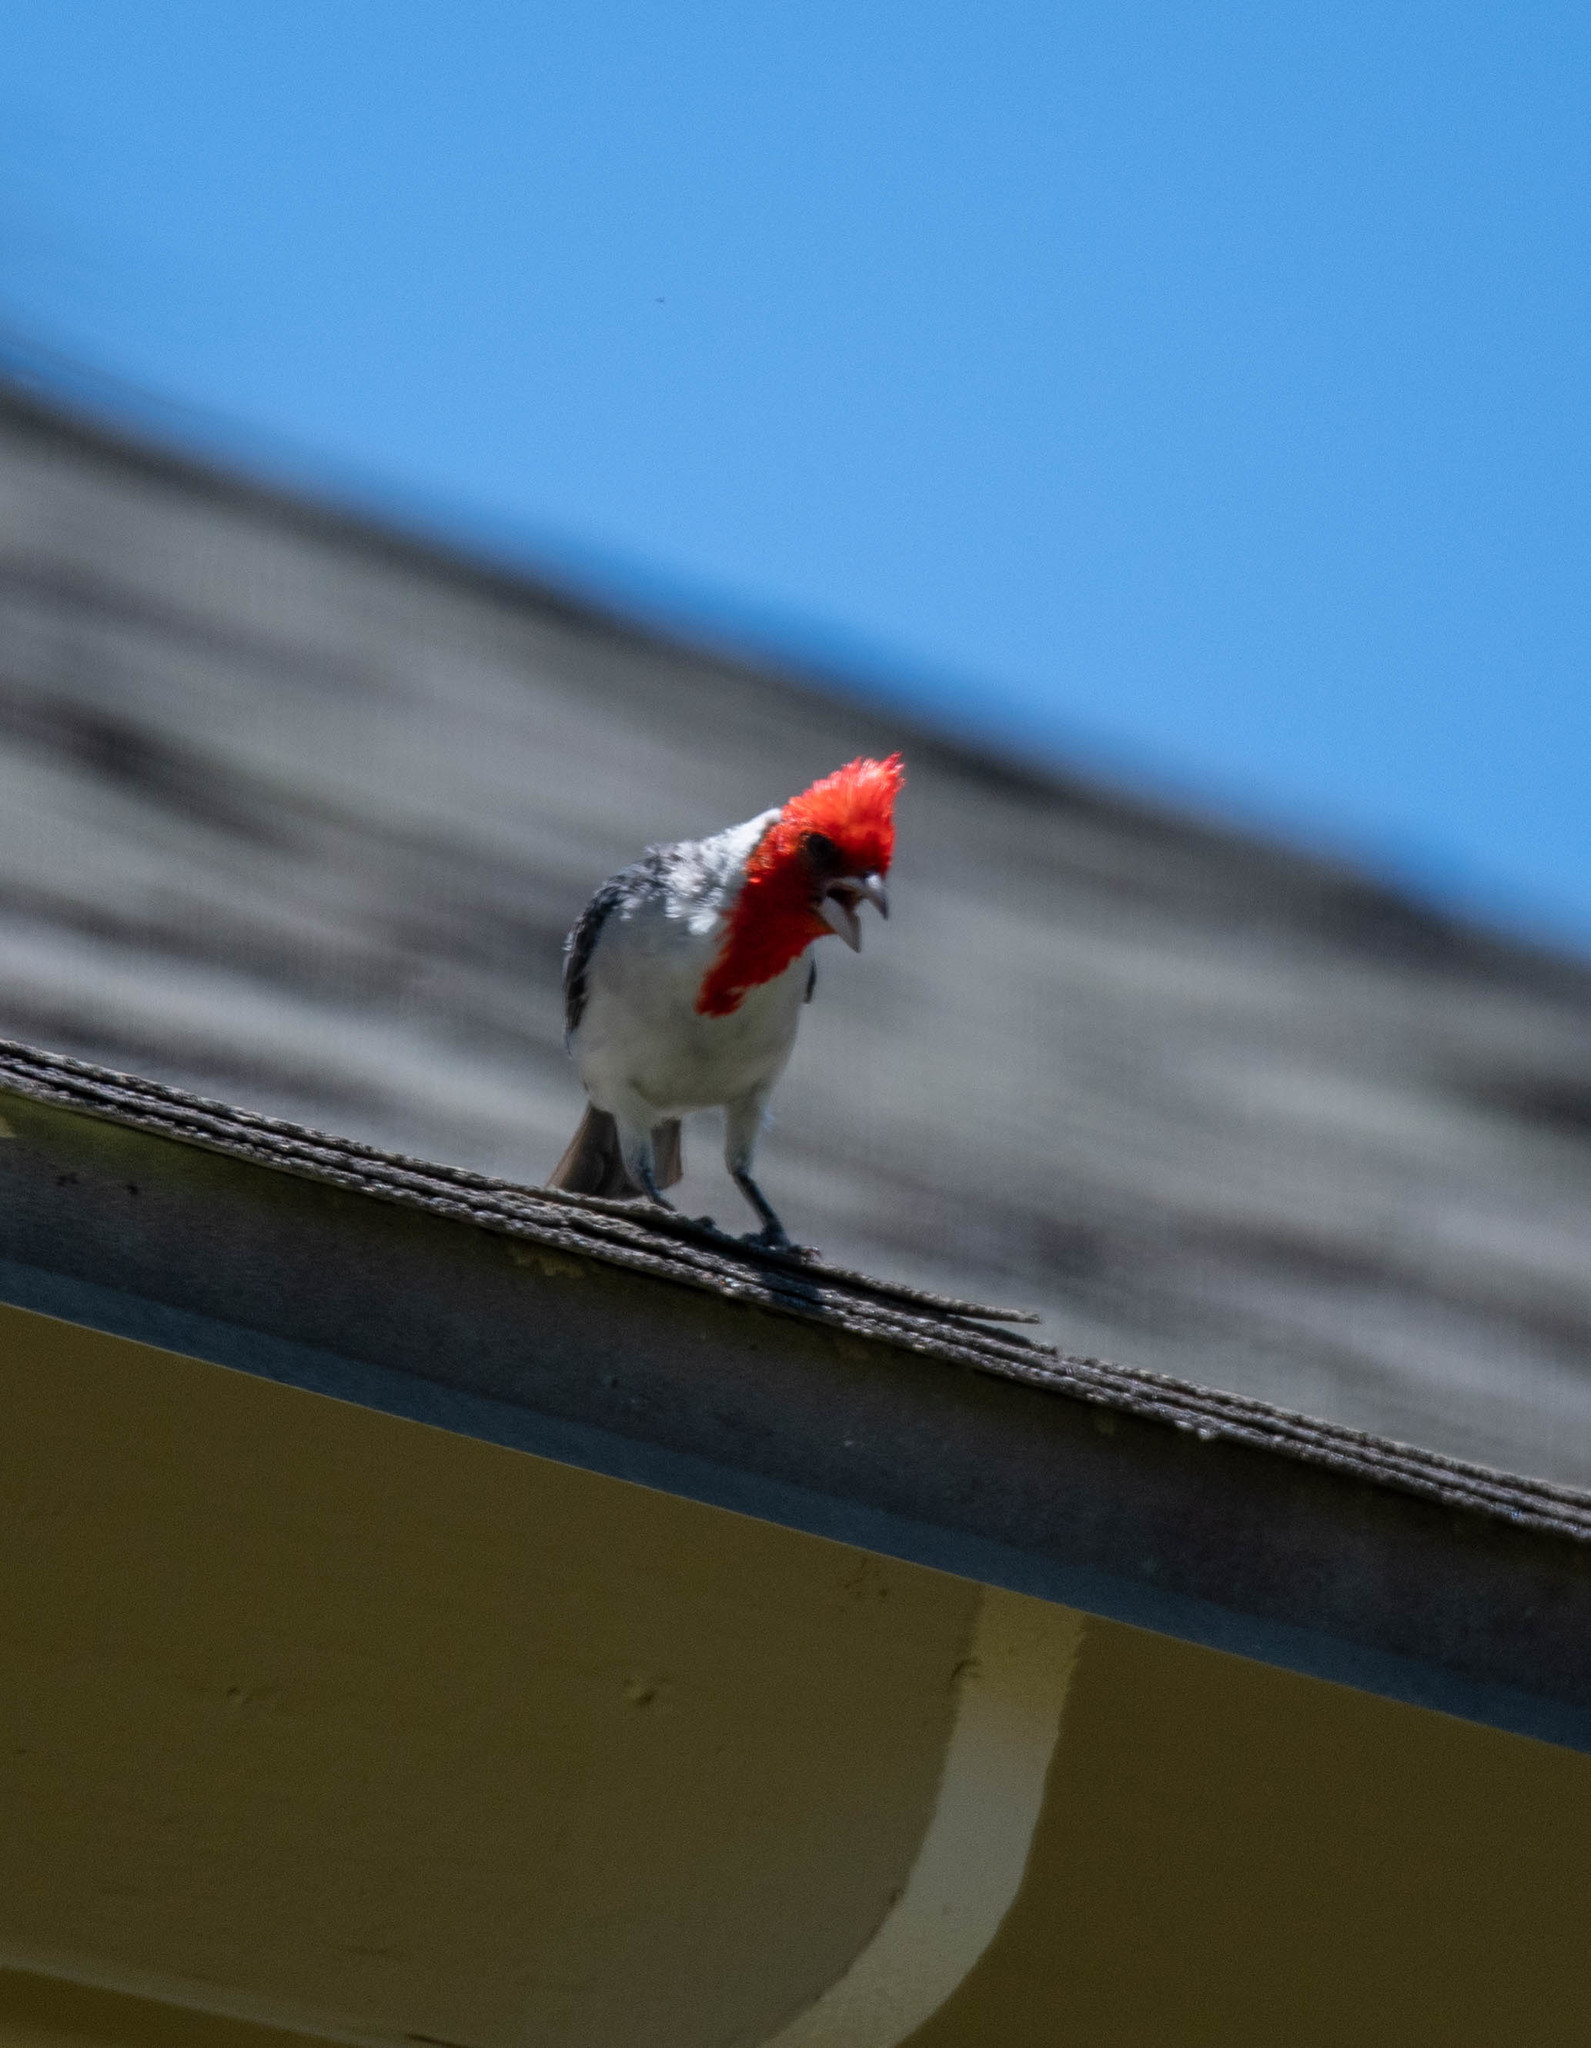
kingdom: Animalia
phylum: Chordata
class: Aves
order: Passeriformes
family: Thraupidae
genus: Paroaria
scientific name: Paroaria coronata
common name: Red-crested cardinal
